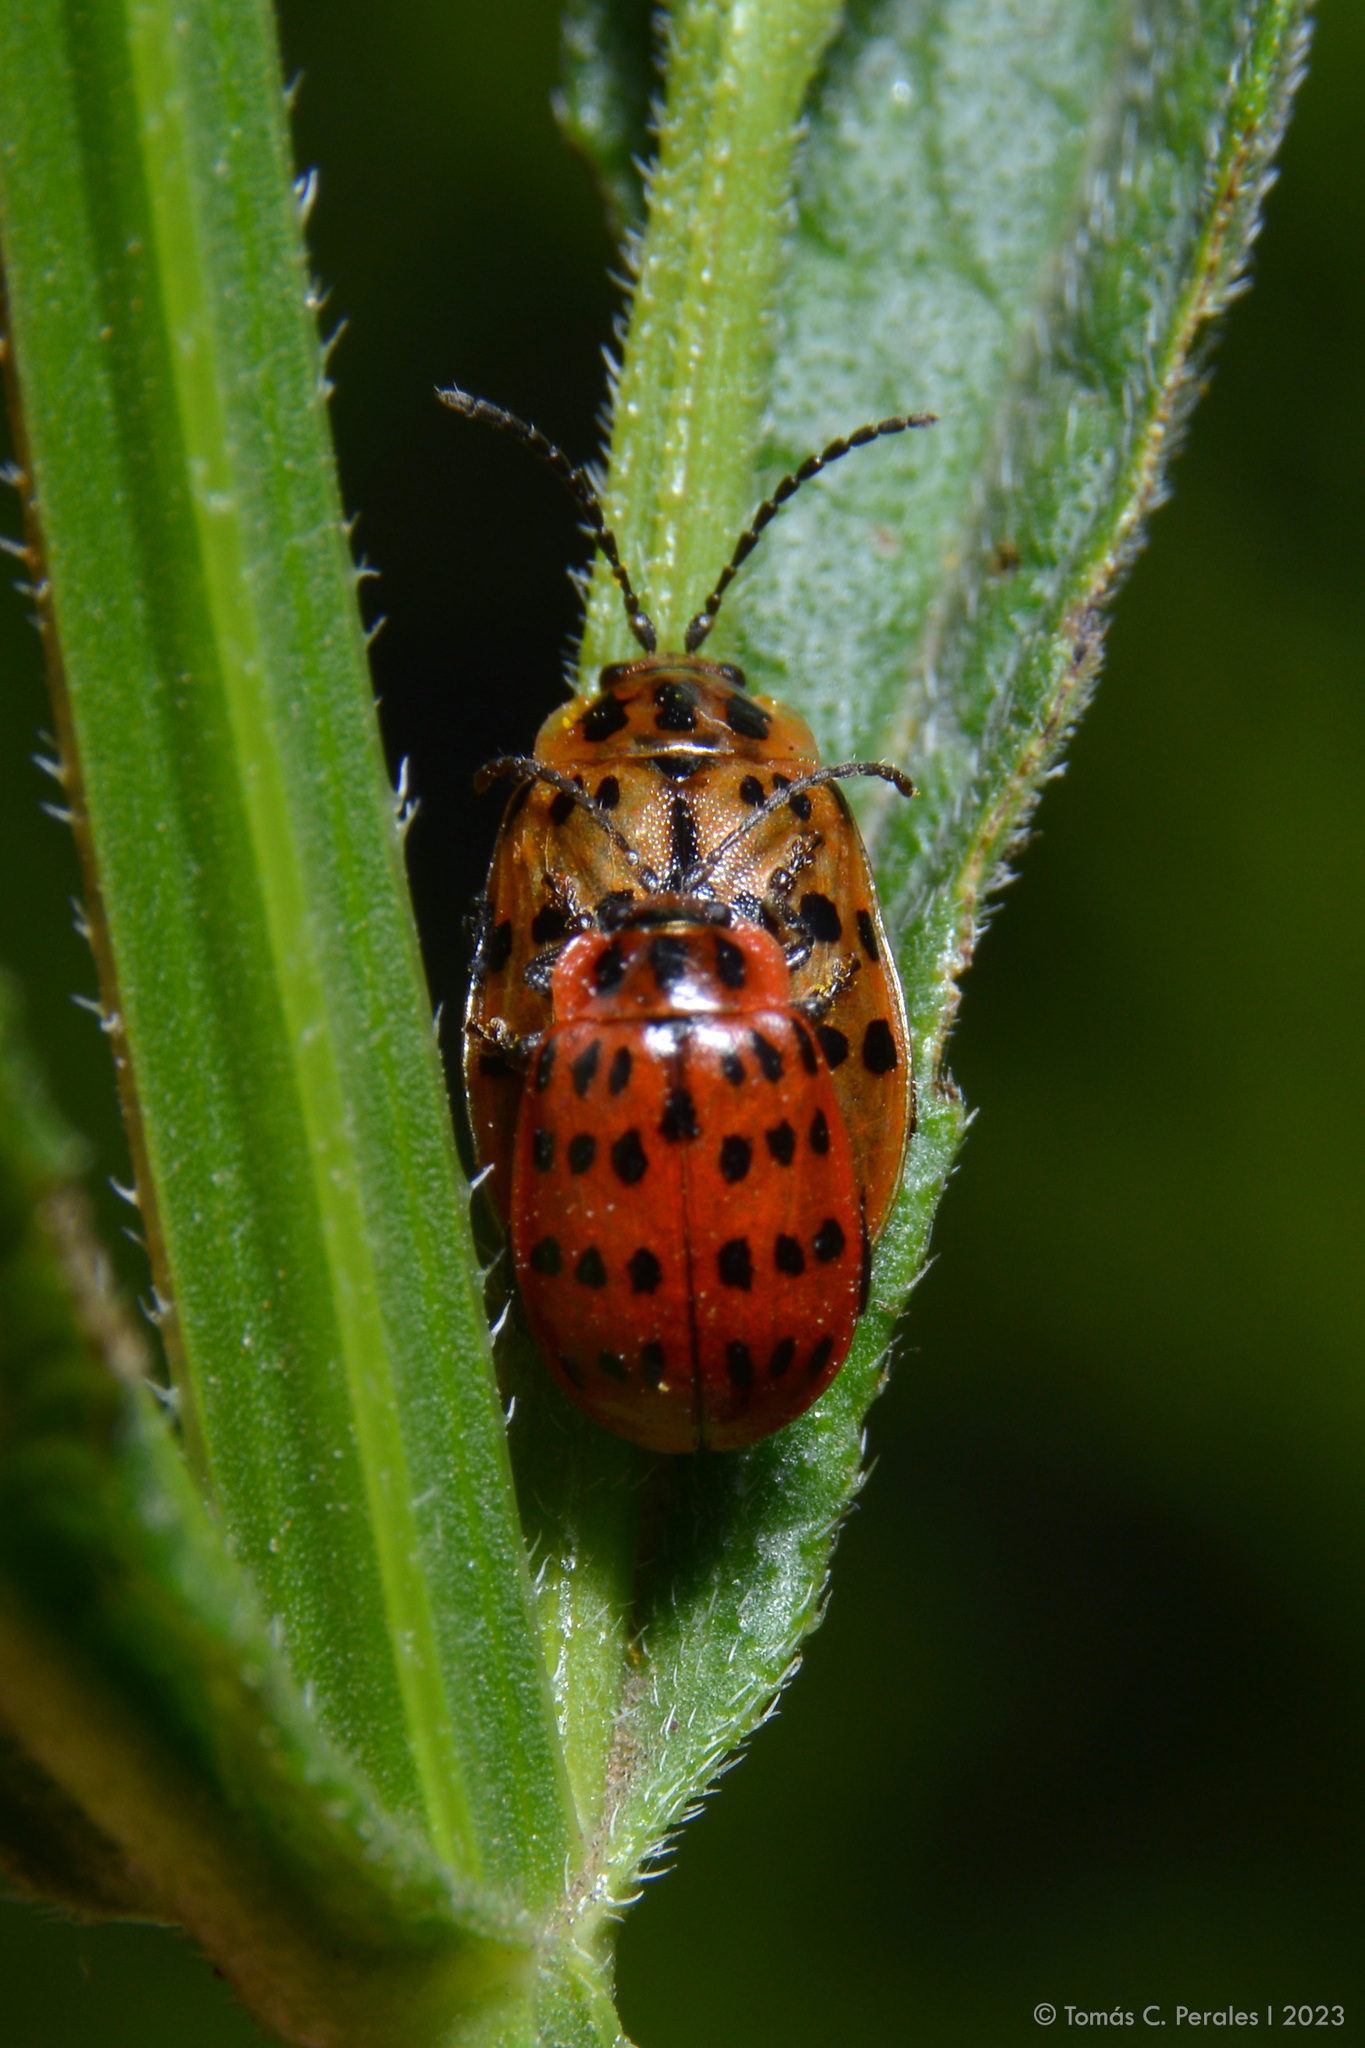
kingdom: Animalia
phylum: Arthropoda
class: Insecta
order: Coleoptera
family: Chrysomelidae
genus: Alagoasa
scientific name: Alagoasa
